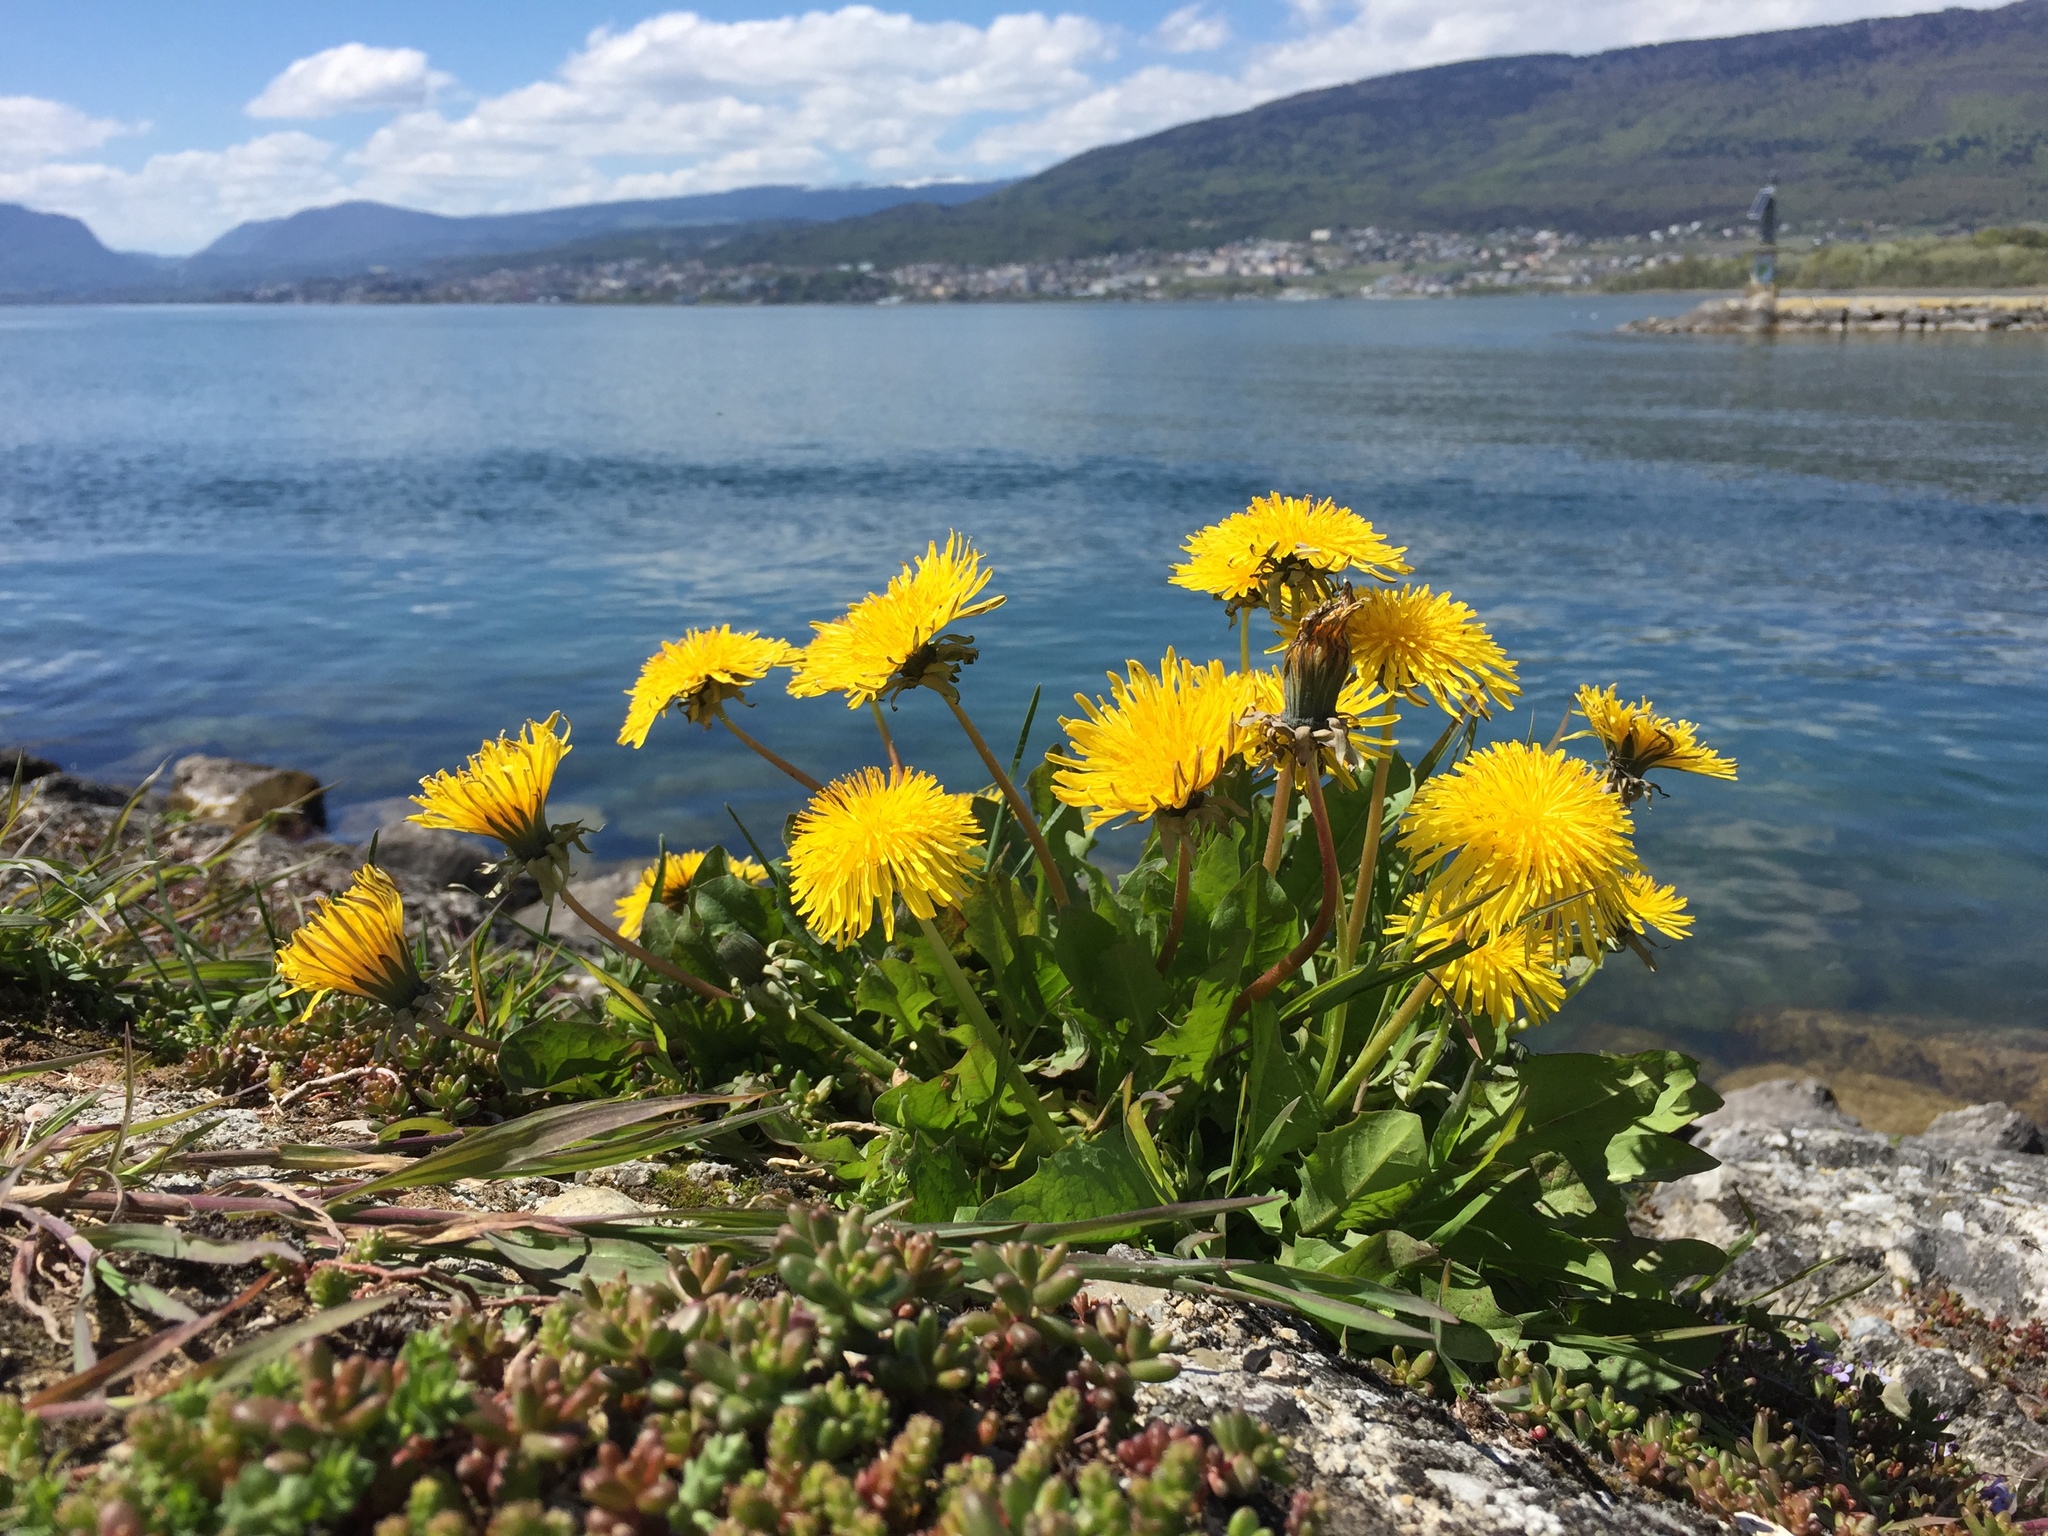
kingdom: Plantae
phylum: Tracheophyta
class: Magnoliopsida
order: Asterales
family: Asteraceae
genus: Taraxacum
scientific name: Taraxacum officinale
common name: Common dandelion
